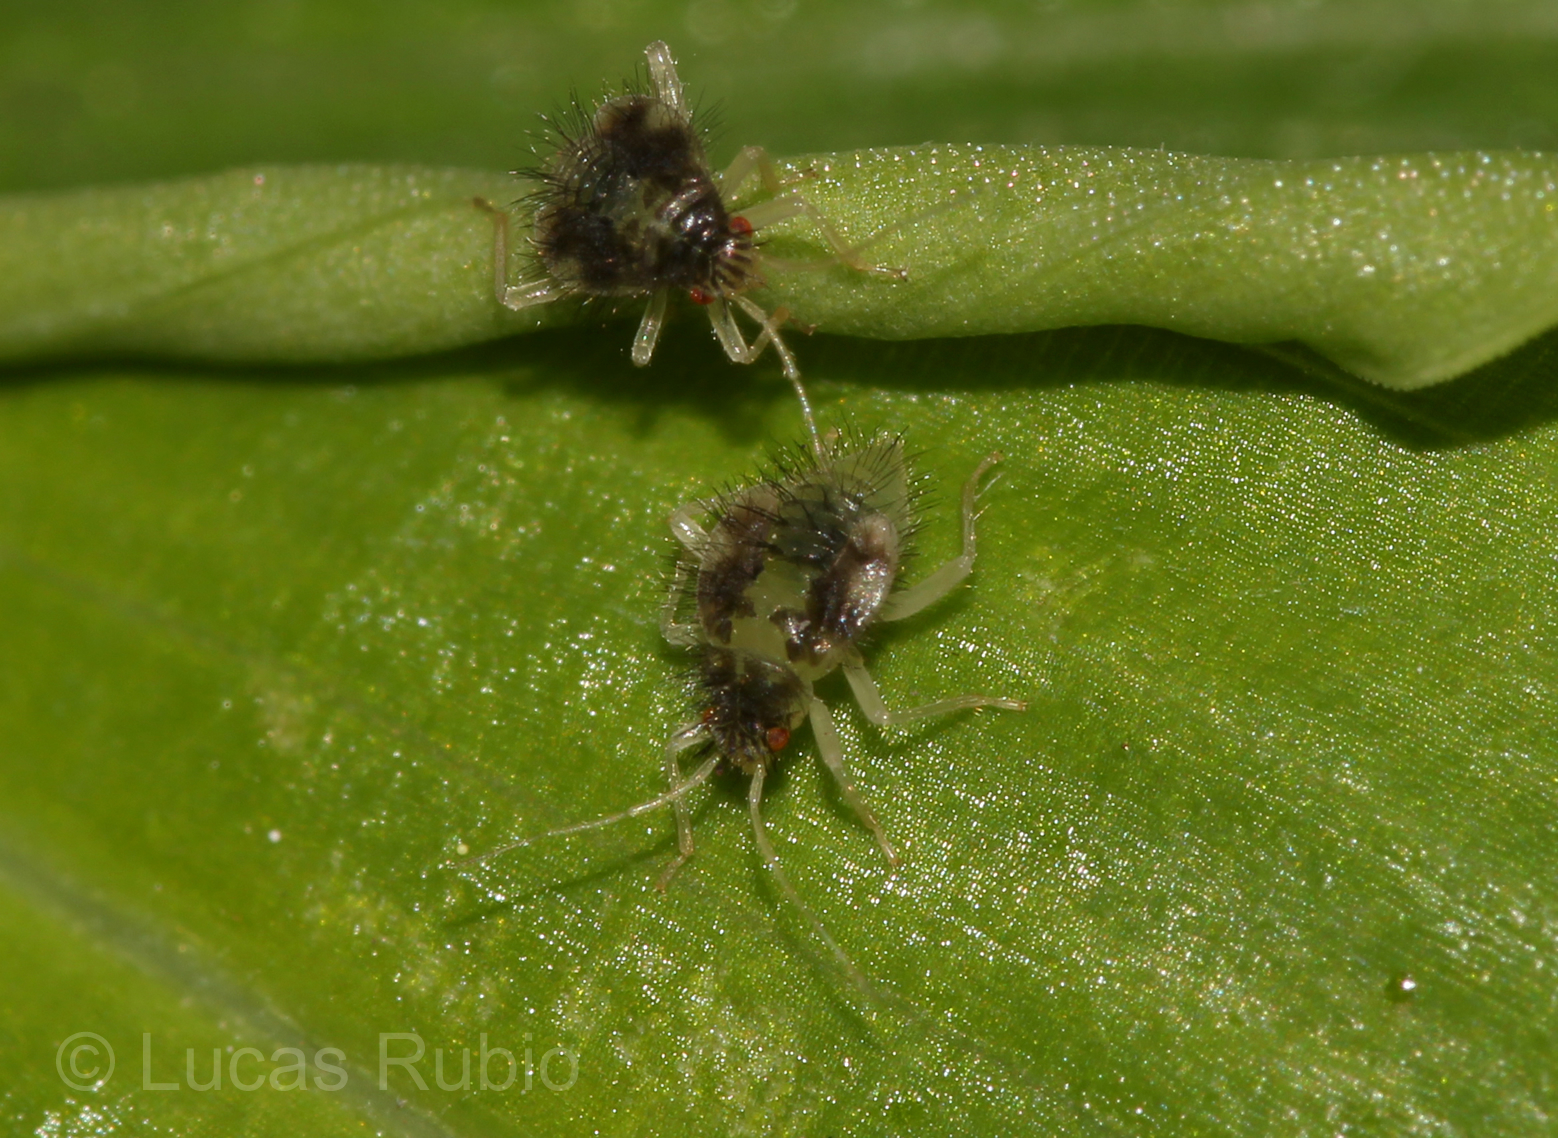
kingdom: Animalia
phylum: Arthropoda
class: Insecta
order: Hemiptera
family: Miridae
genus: Pycnoderes
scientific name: Pycnoderes albipes
